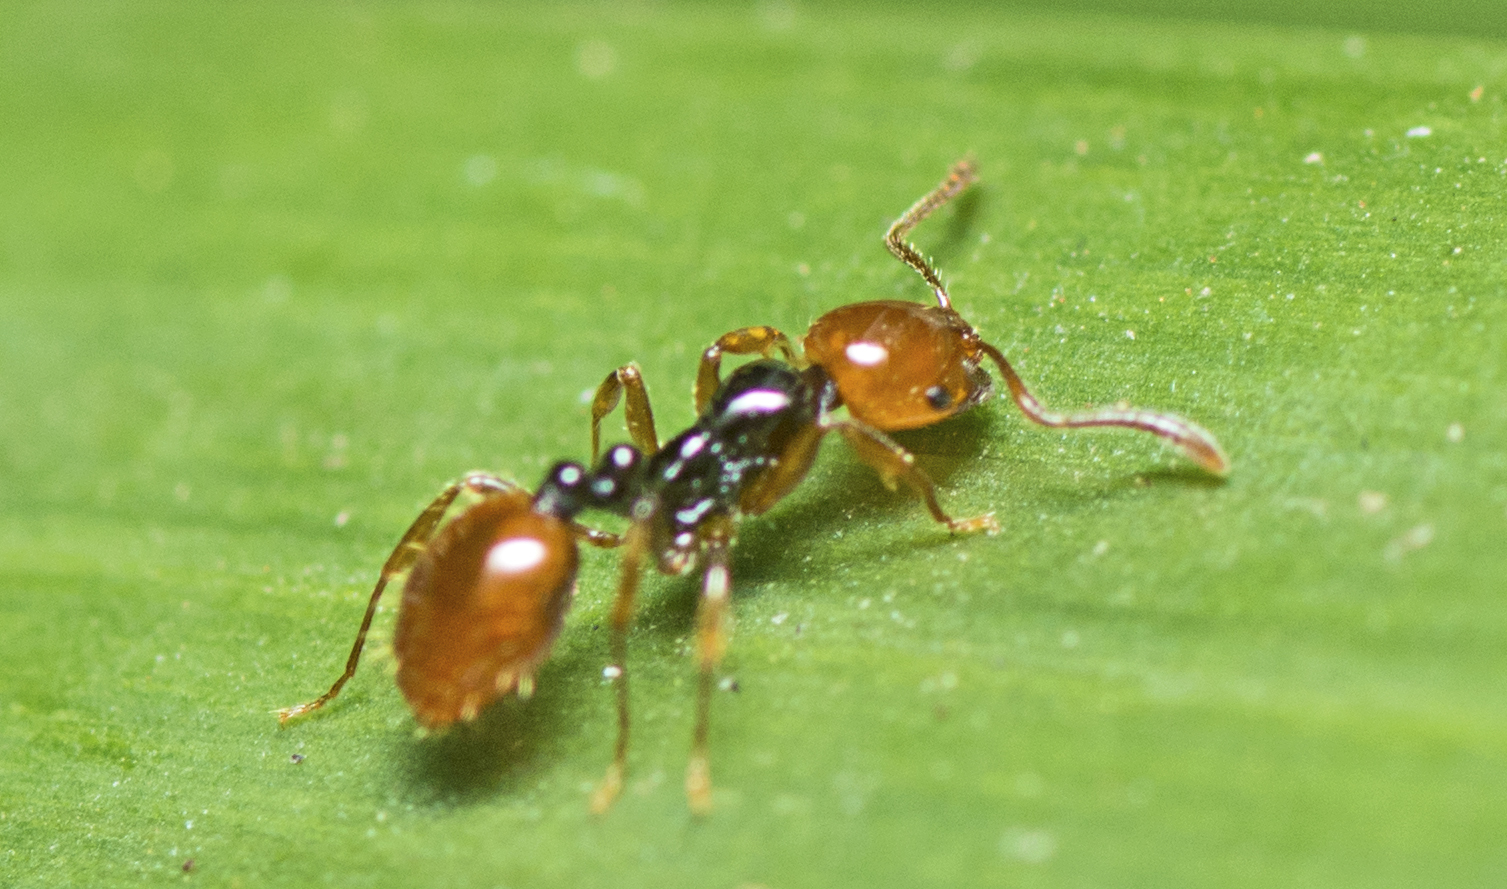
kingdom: Animalia
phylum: Arthropoda
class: Insecta
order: Hymenoptera
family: Formicidae
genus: Chelaner
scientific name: Chelaner
